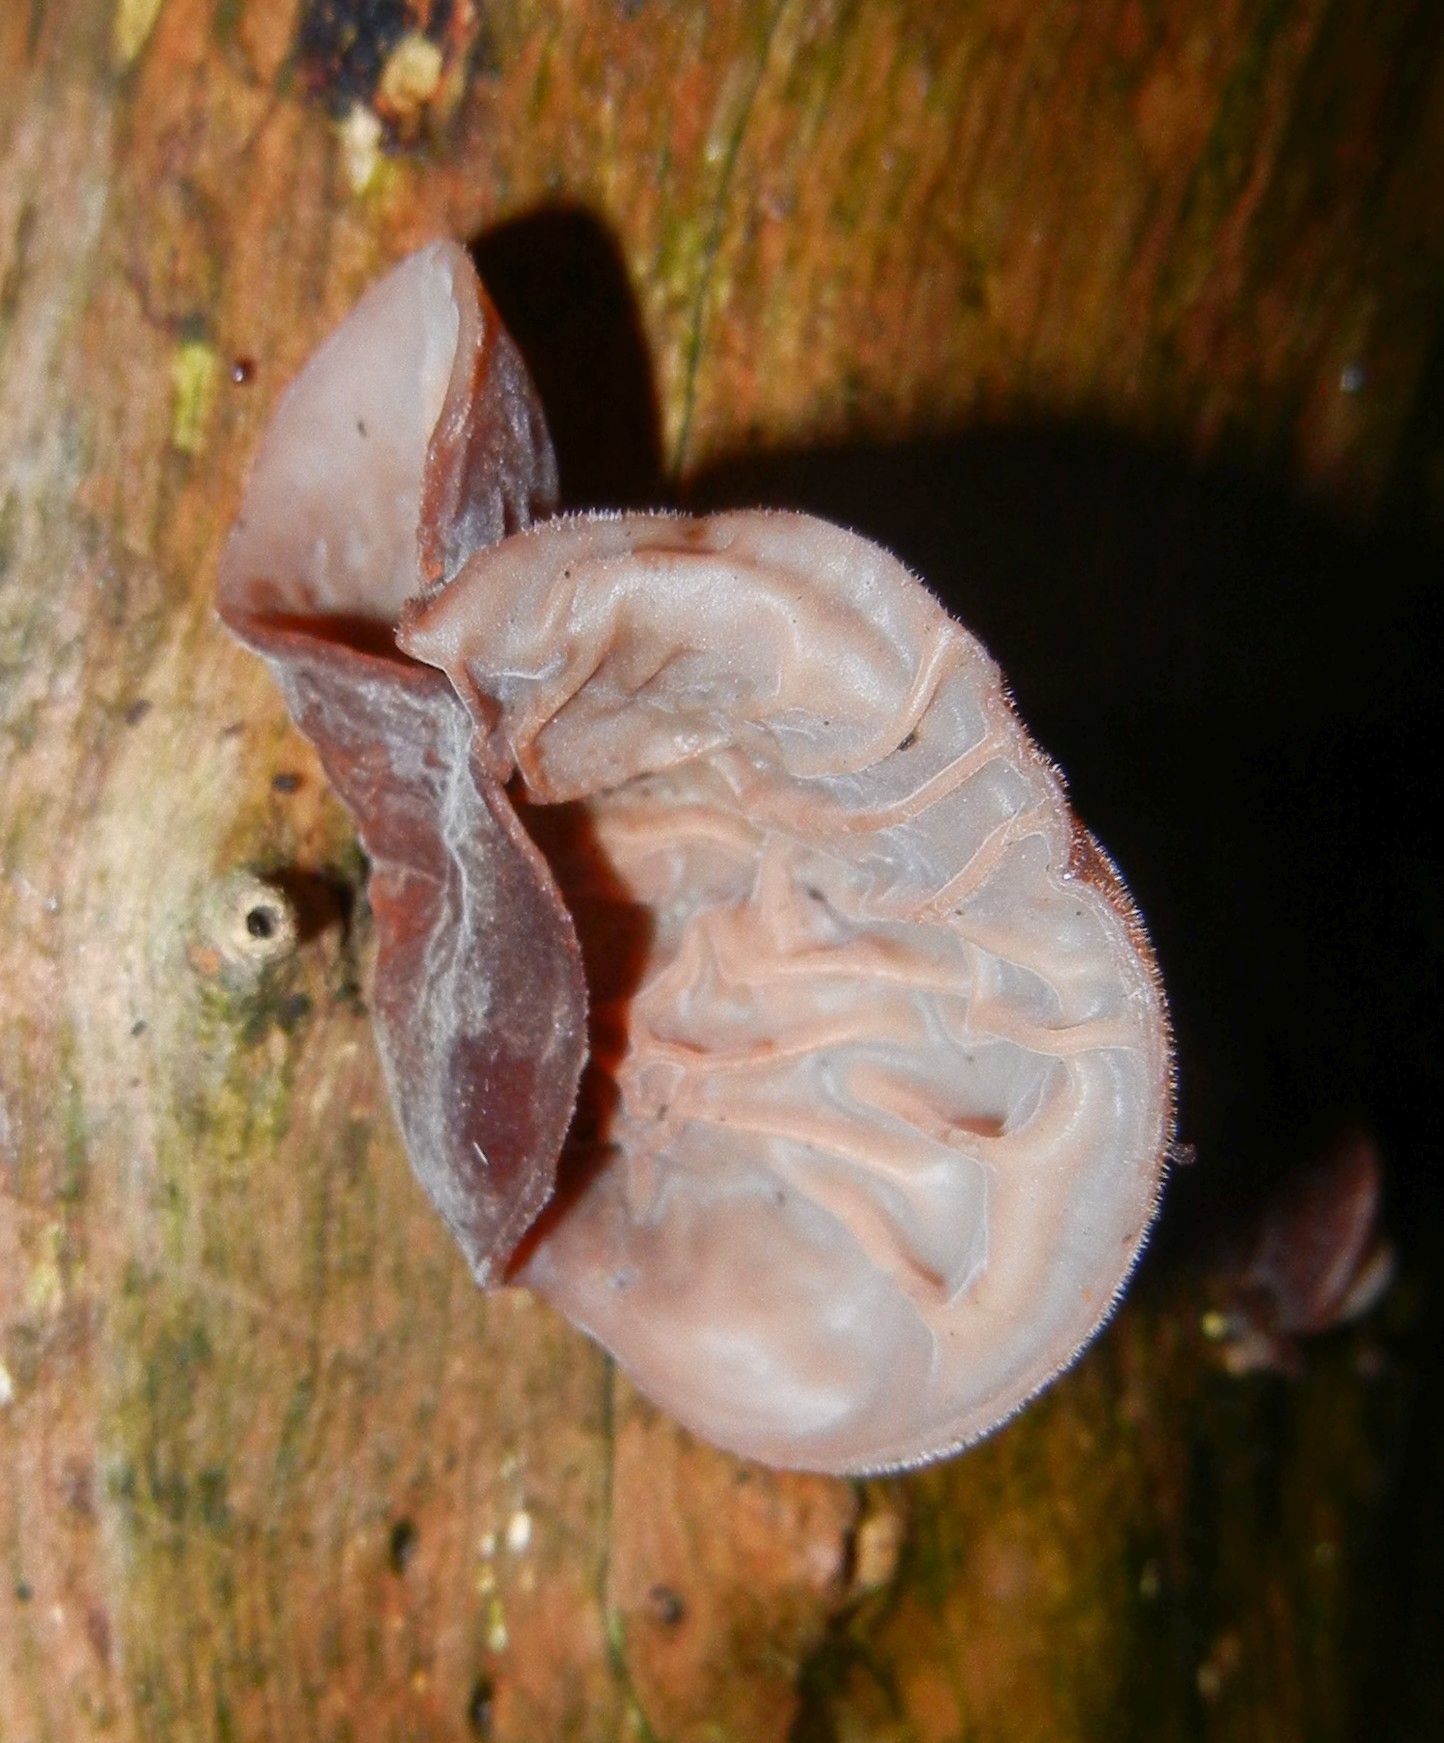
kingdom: Fungi
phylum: Basidiomycota
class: Agaricomycetes
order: Auriculariales
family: Auriculariaceae
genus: Auricularia
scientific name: Auricularia auricula-judae
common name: Jelly ear
